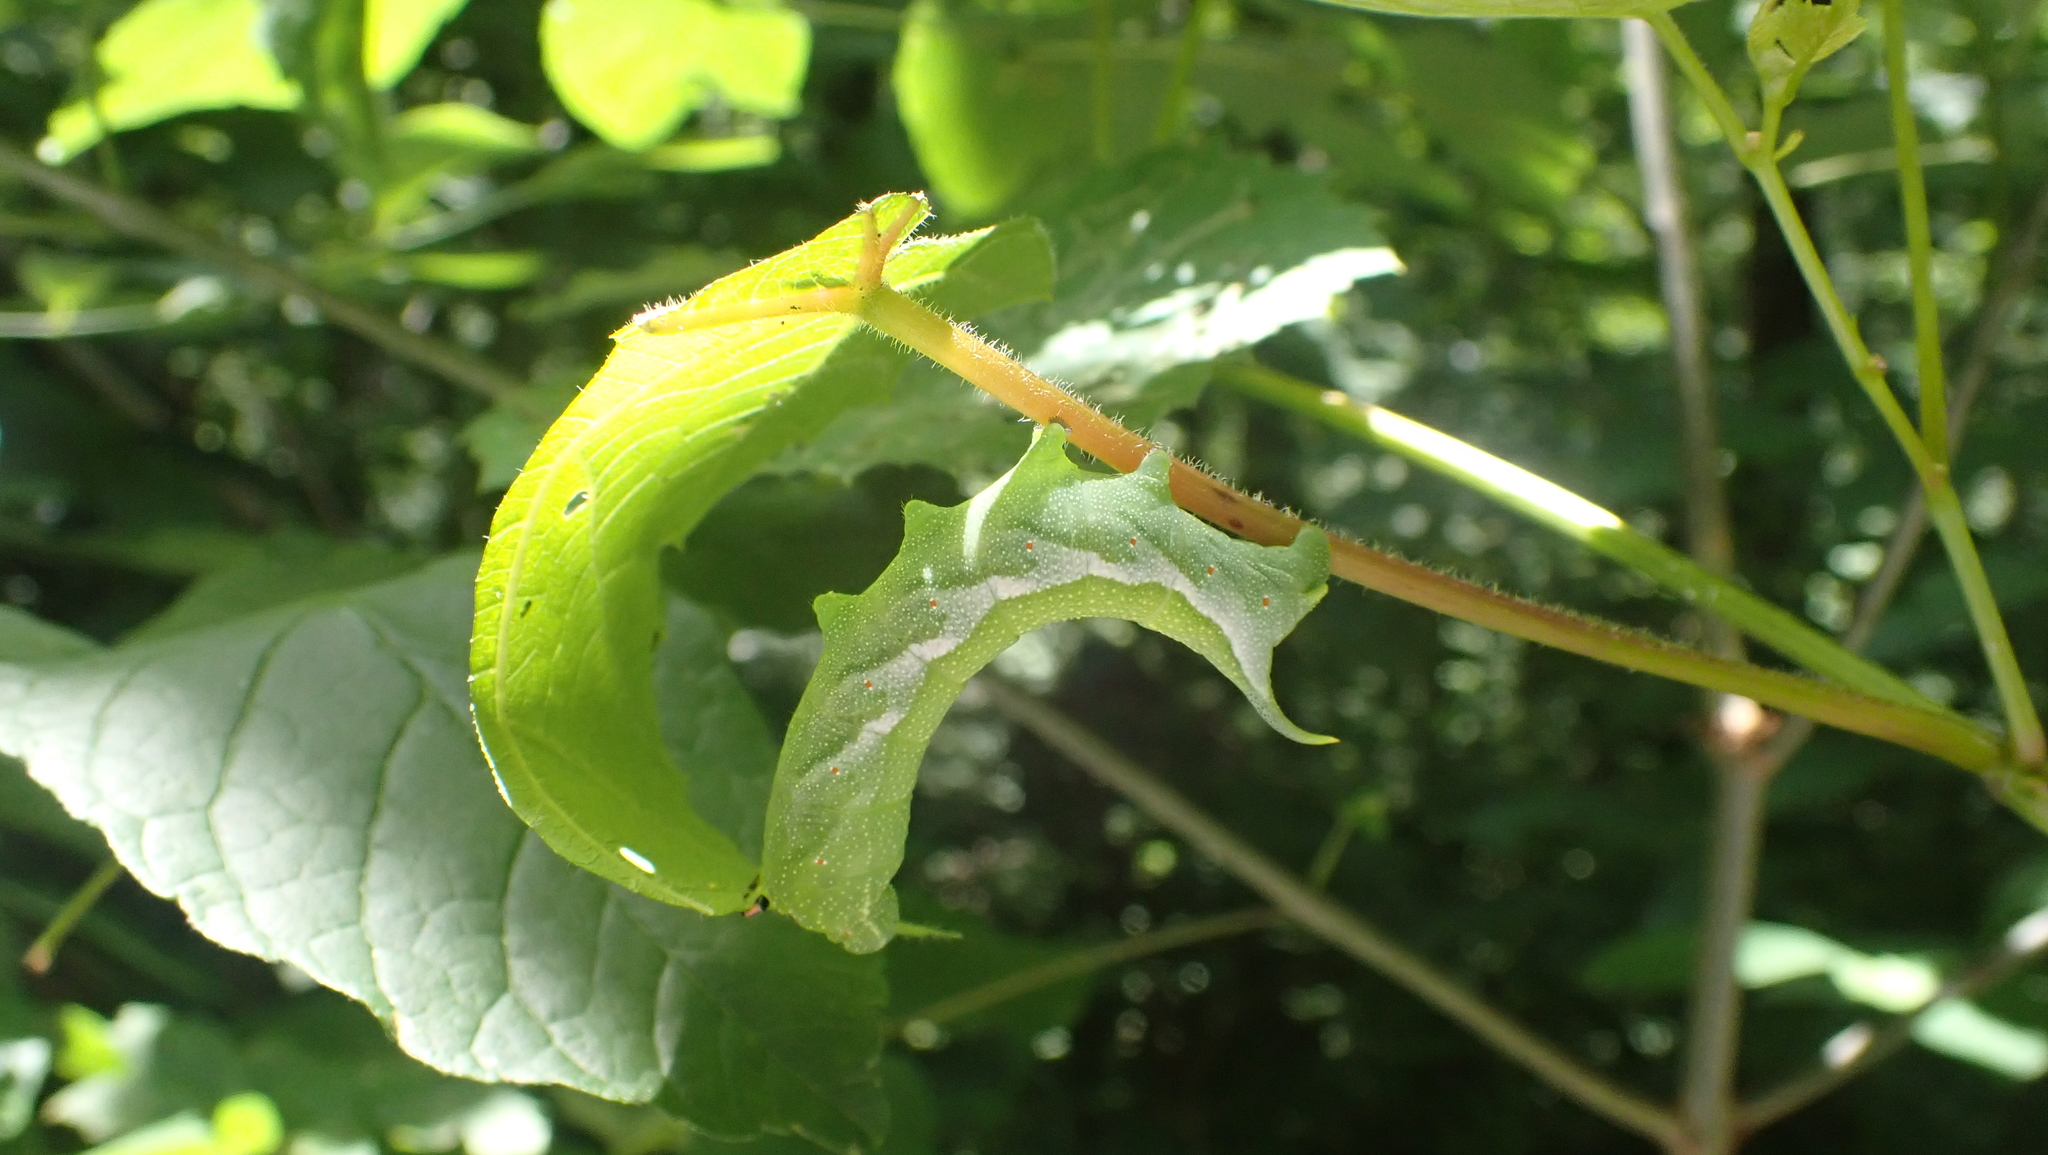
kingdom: Animalia
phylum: Arthropoda
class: Insecta
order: Lepidoptera
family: Sphingidae
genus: Darapsa
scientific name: Darapsa myron
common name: Hog sphinx
